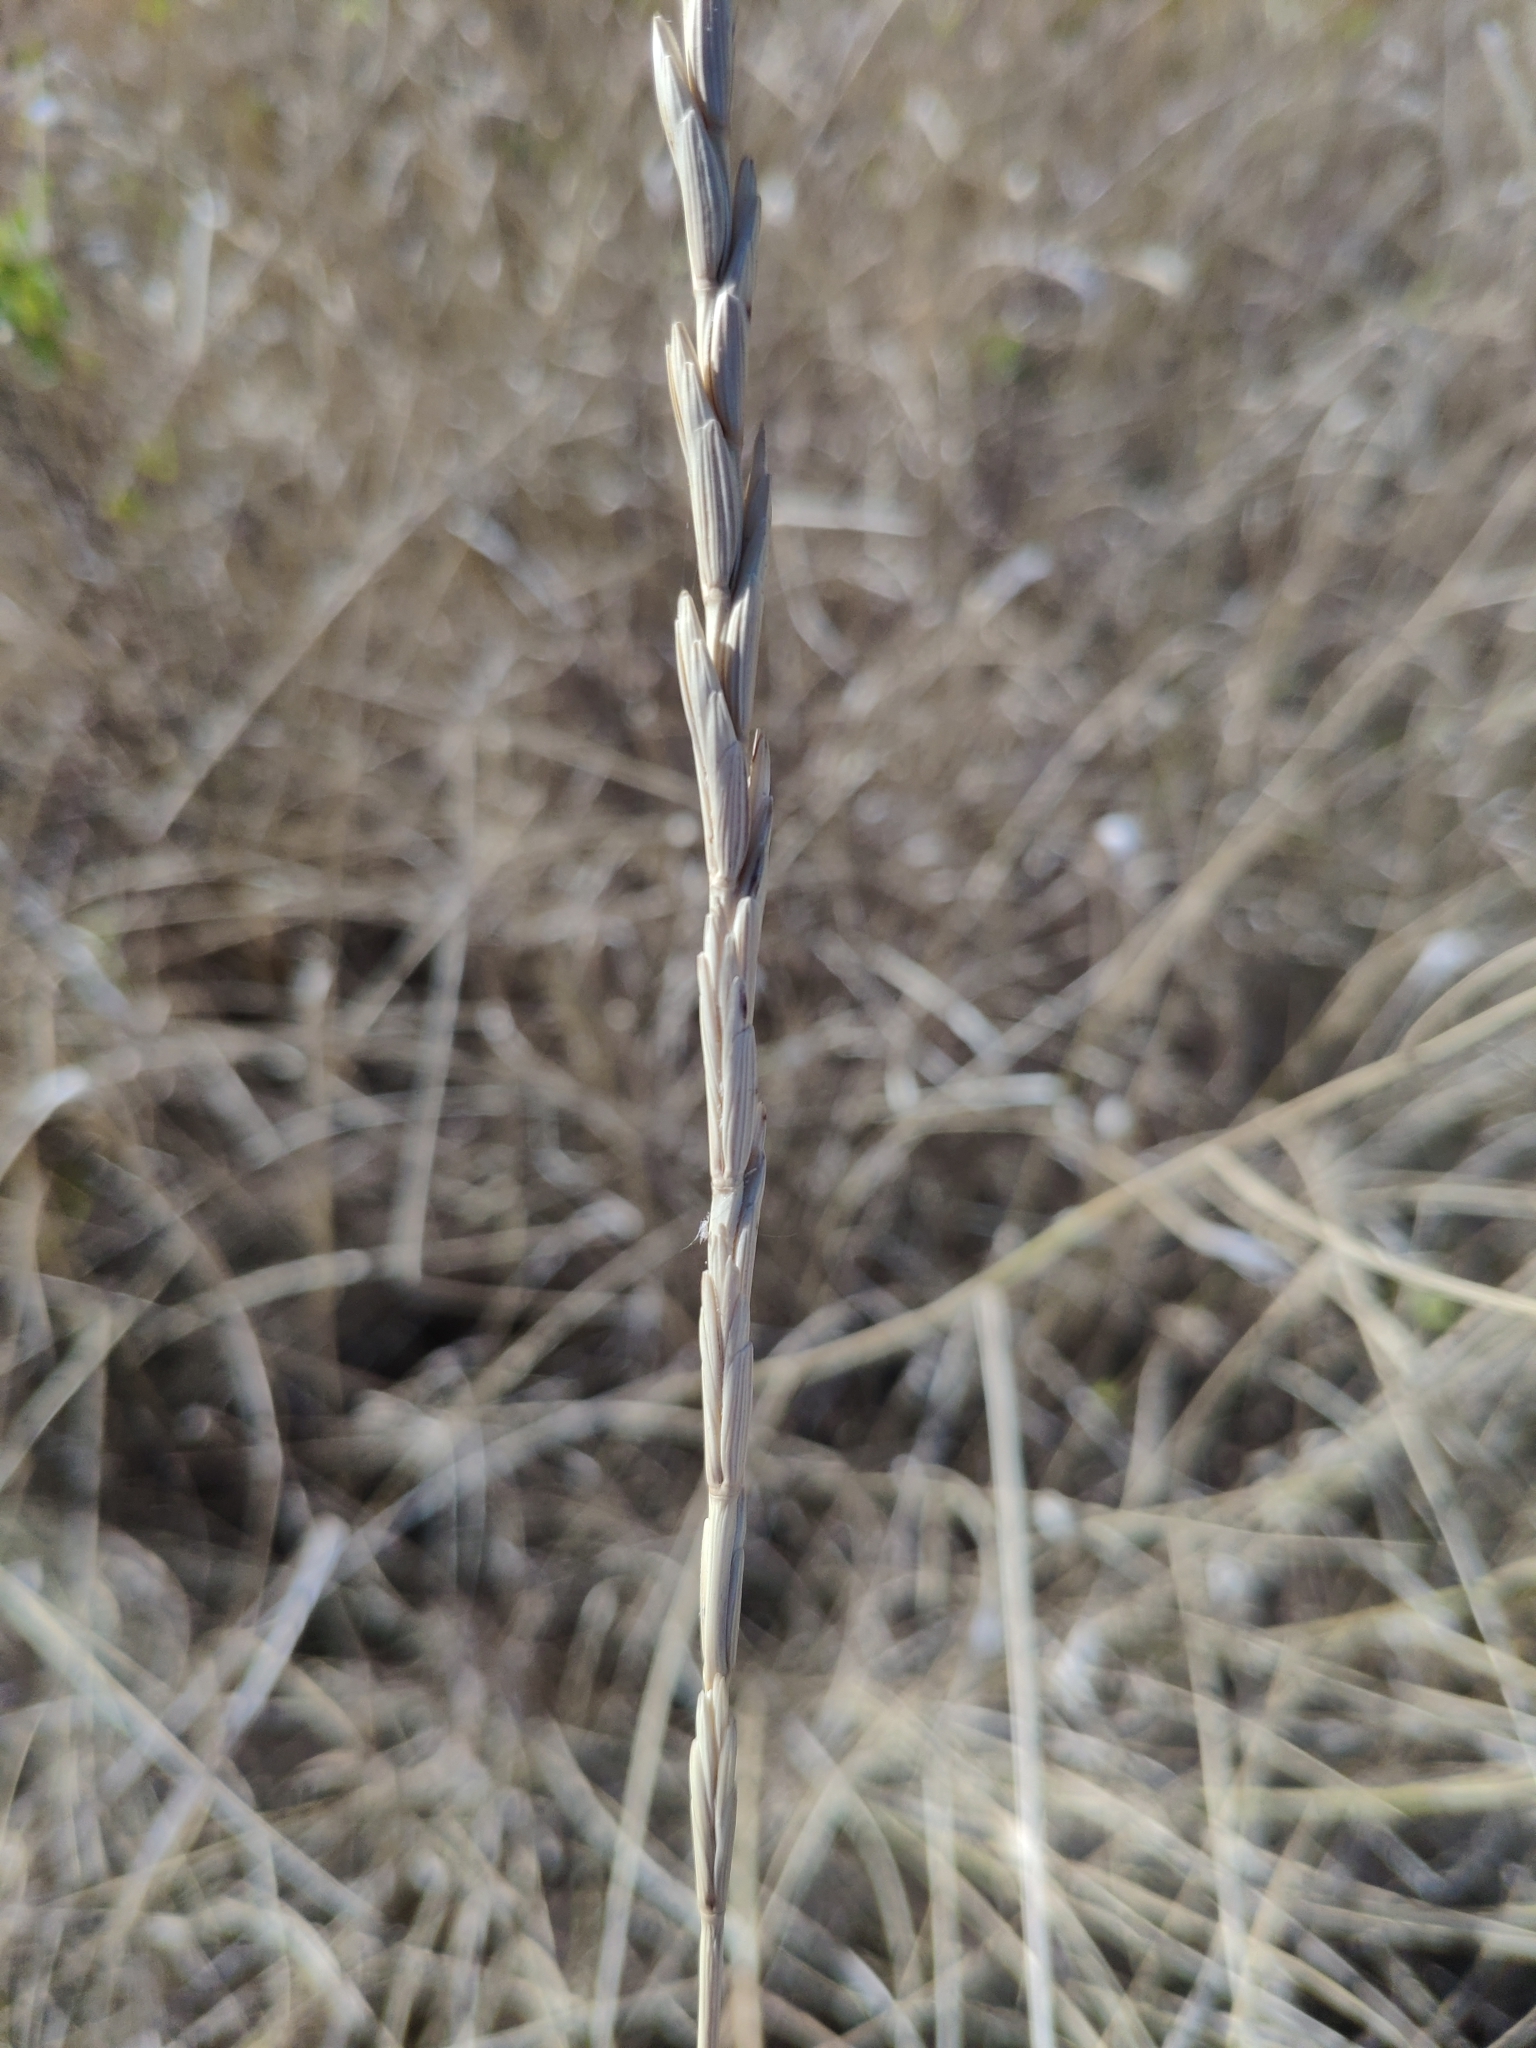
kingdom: Plantae
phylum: Tracheophyta
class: Liliopsida
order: Poales
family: Poaceae
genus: Thinopyrum
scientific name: Thinopyrum intermedium
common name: Intermediate wheatgrass
